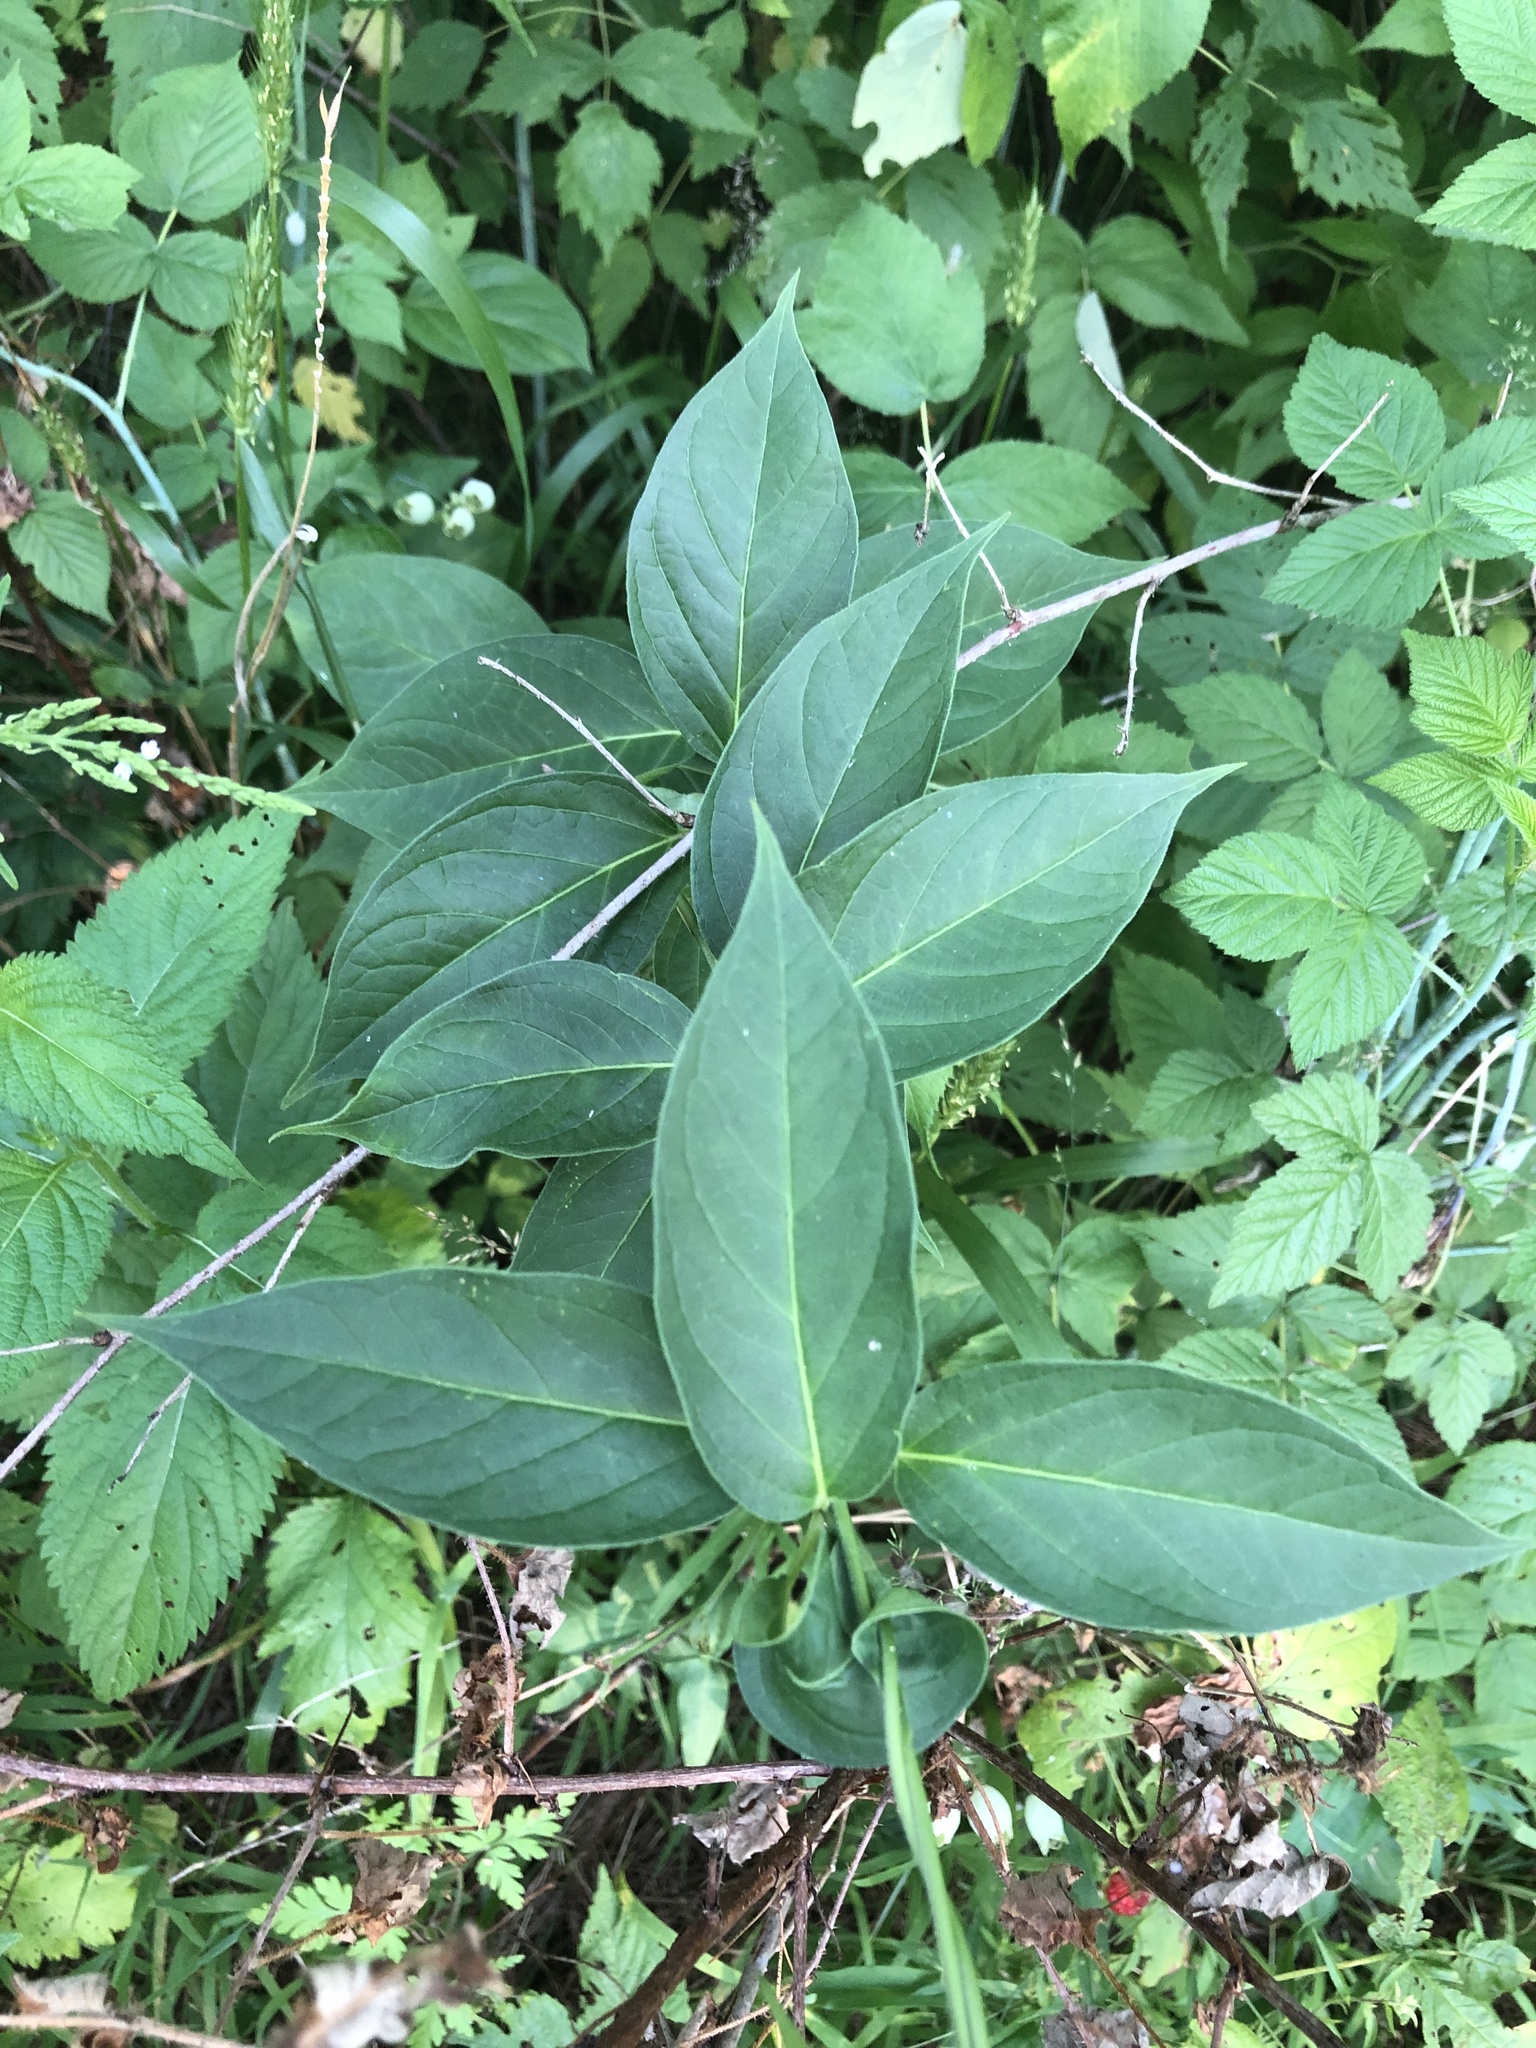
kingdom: Plantae
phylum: Tracheophyta
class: Magnoliopsida
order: Gentianales
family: Apocynaceae
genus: Vincetoxicum
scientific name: Vincetoxicum rossicum
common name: Dog-strangling vine
